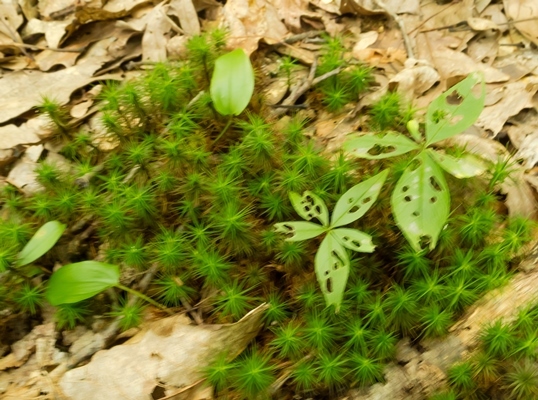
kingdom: Plantae
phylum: Tracheophyta
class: Magnoliopsida
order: Ericales
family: Primulaceae
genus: Lysimachia
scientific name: Lysimachia borealis
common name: American starflower
